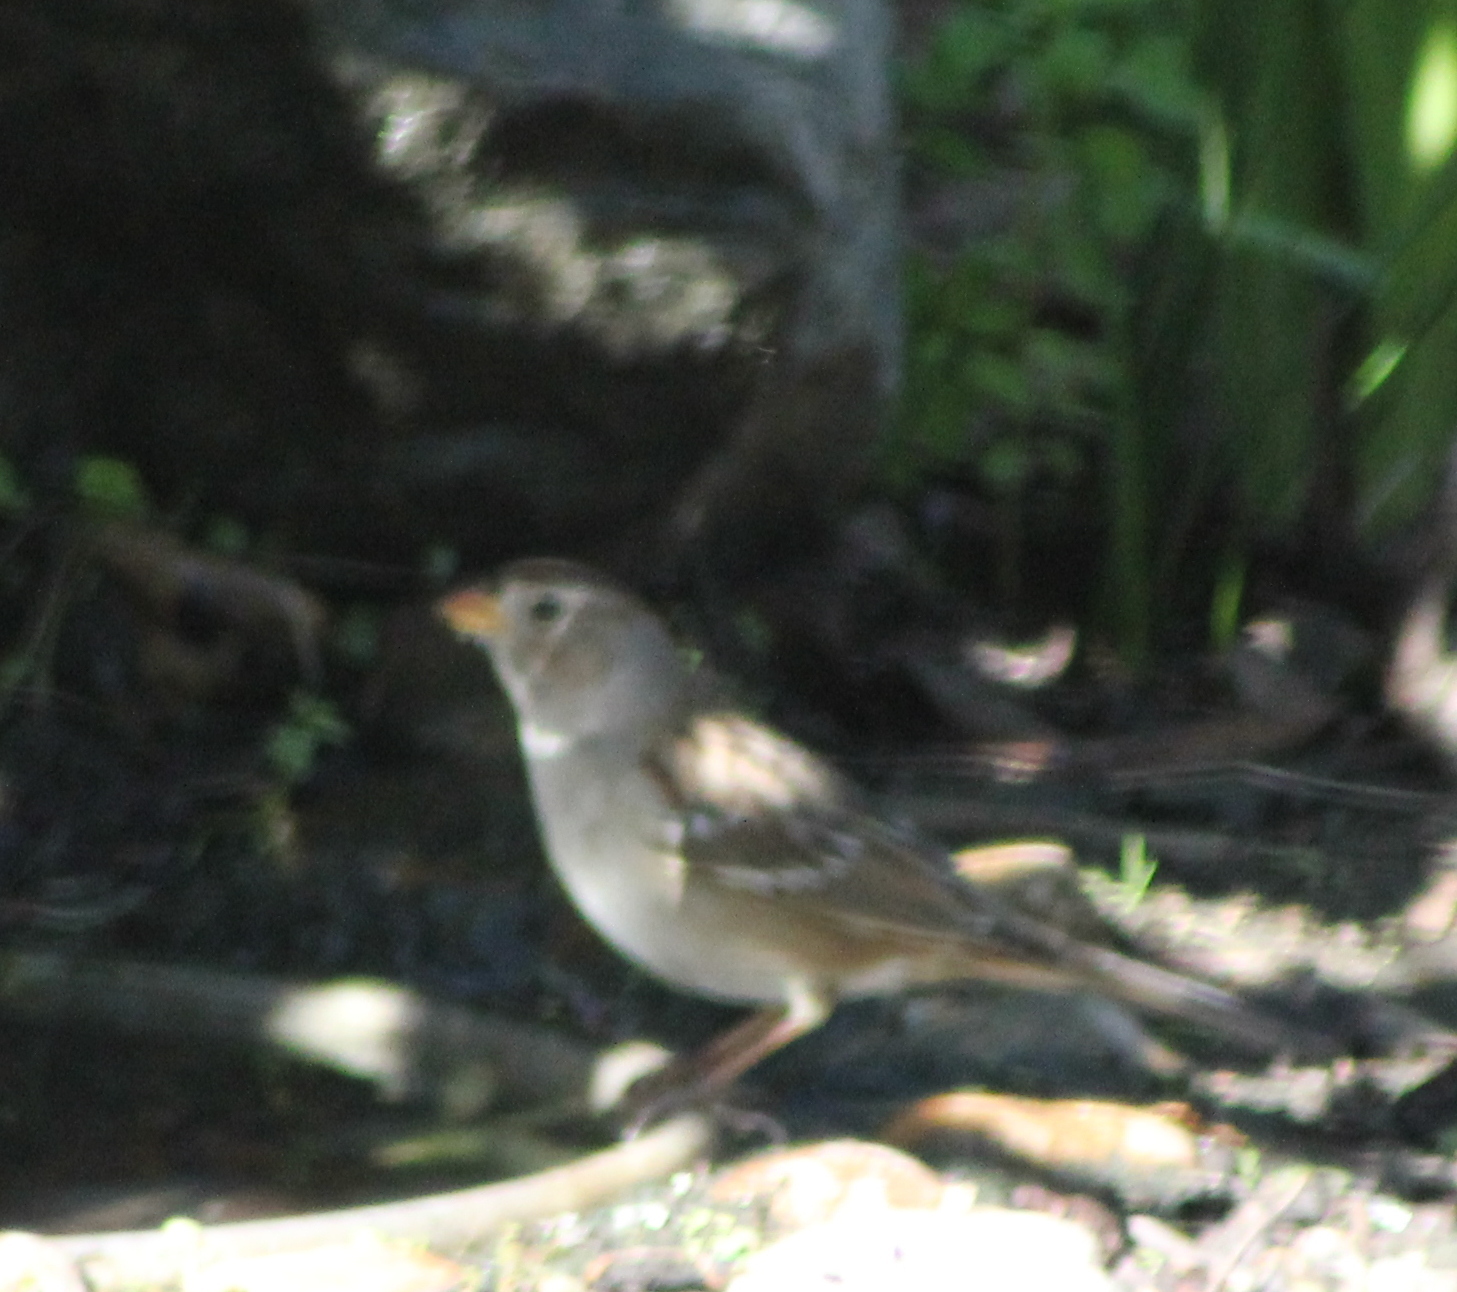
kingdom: Animalia
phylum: Chordata
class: Aves
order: Passeriformes
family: Passerellidae
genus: Zonotrichia
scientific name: Zonotrichia leucophrys
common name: White-crowned sparrow
